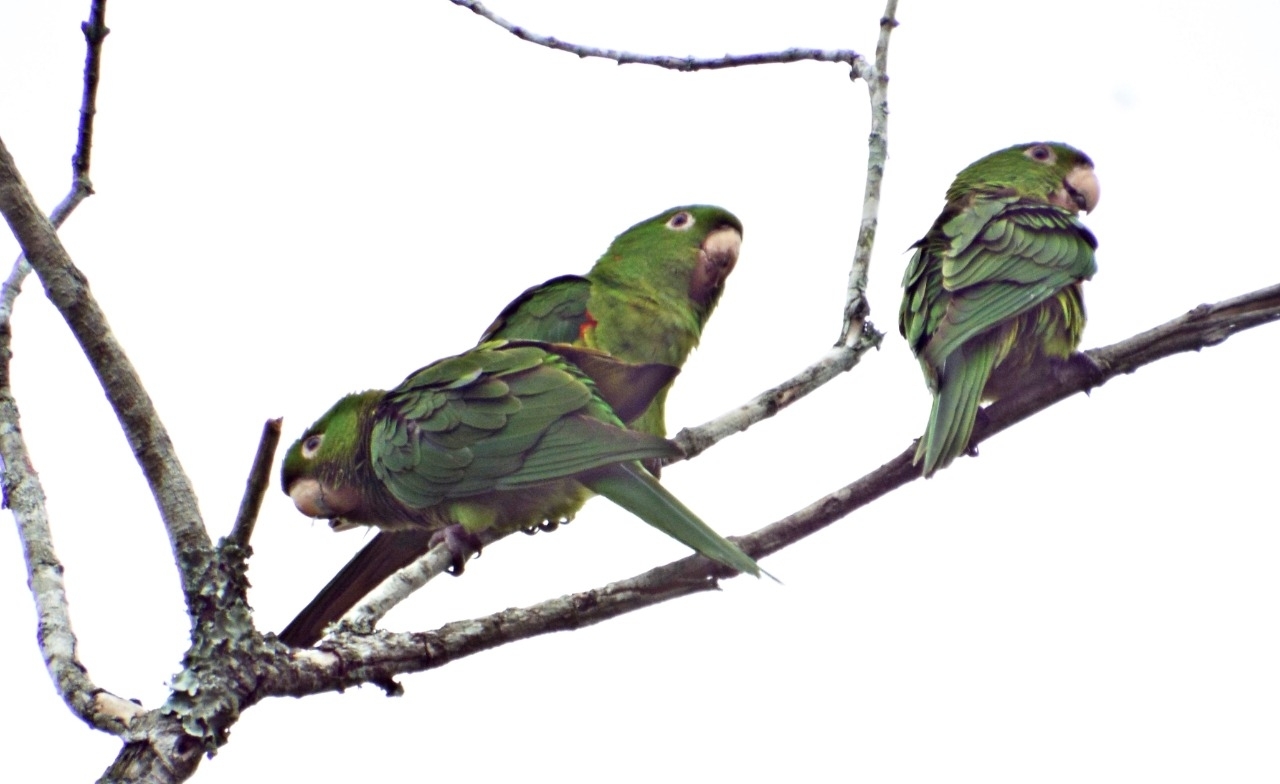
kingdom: Animalia
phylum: Chordata
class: Aves
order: Psittaciformes
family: Psittacidae
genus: Aratinga
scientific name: Aratinga leucophthalma
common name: White-eyed parakeet
